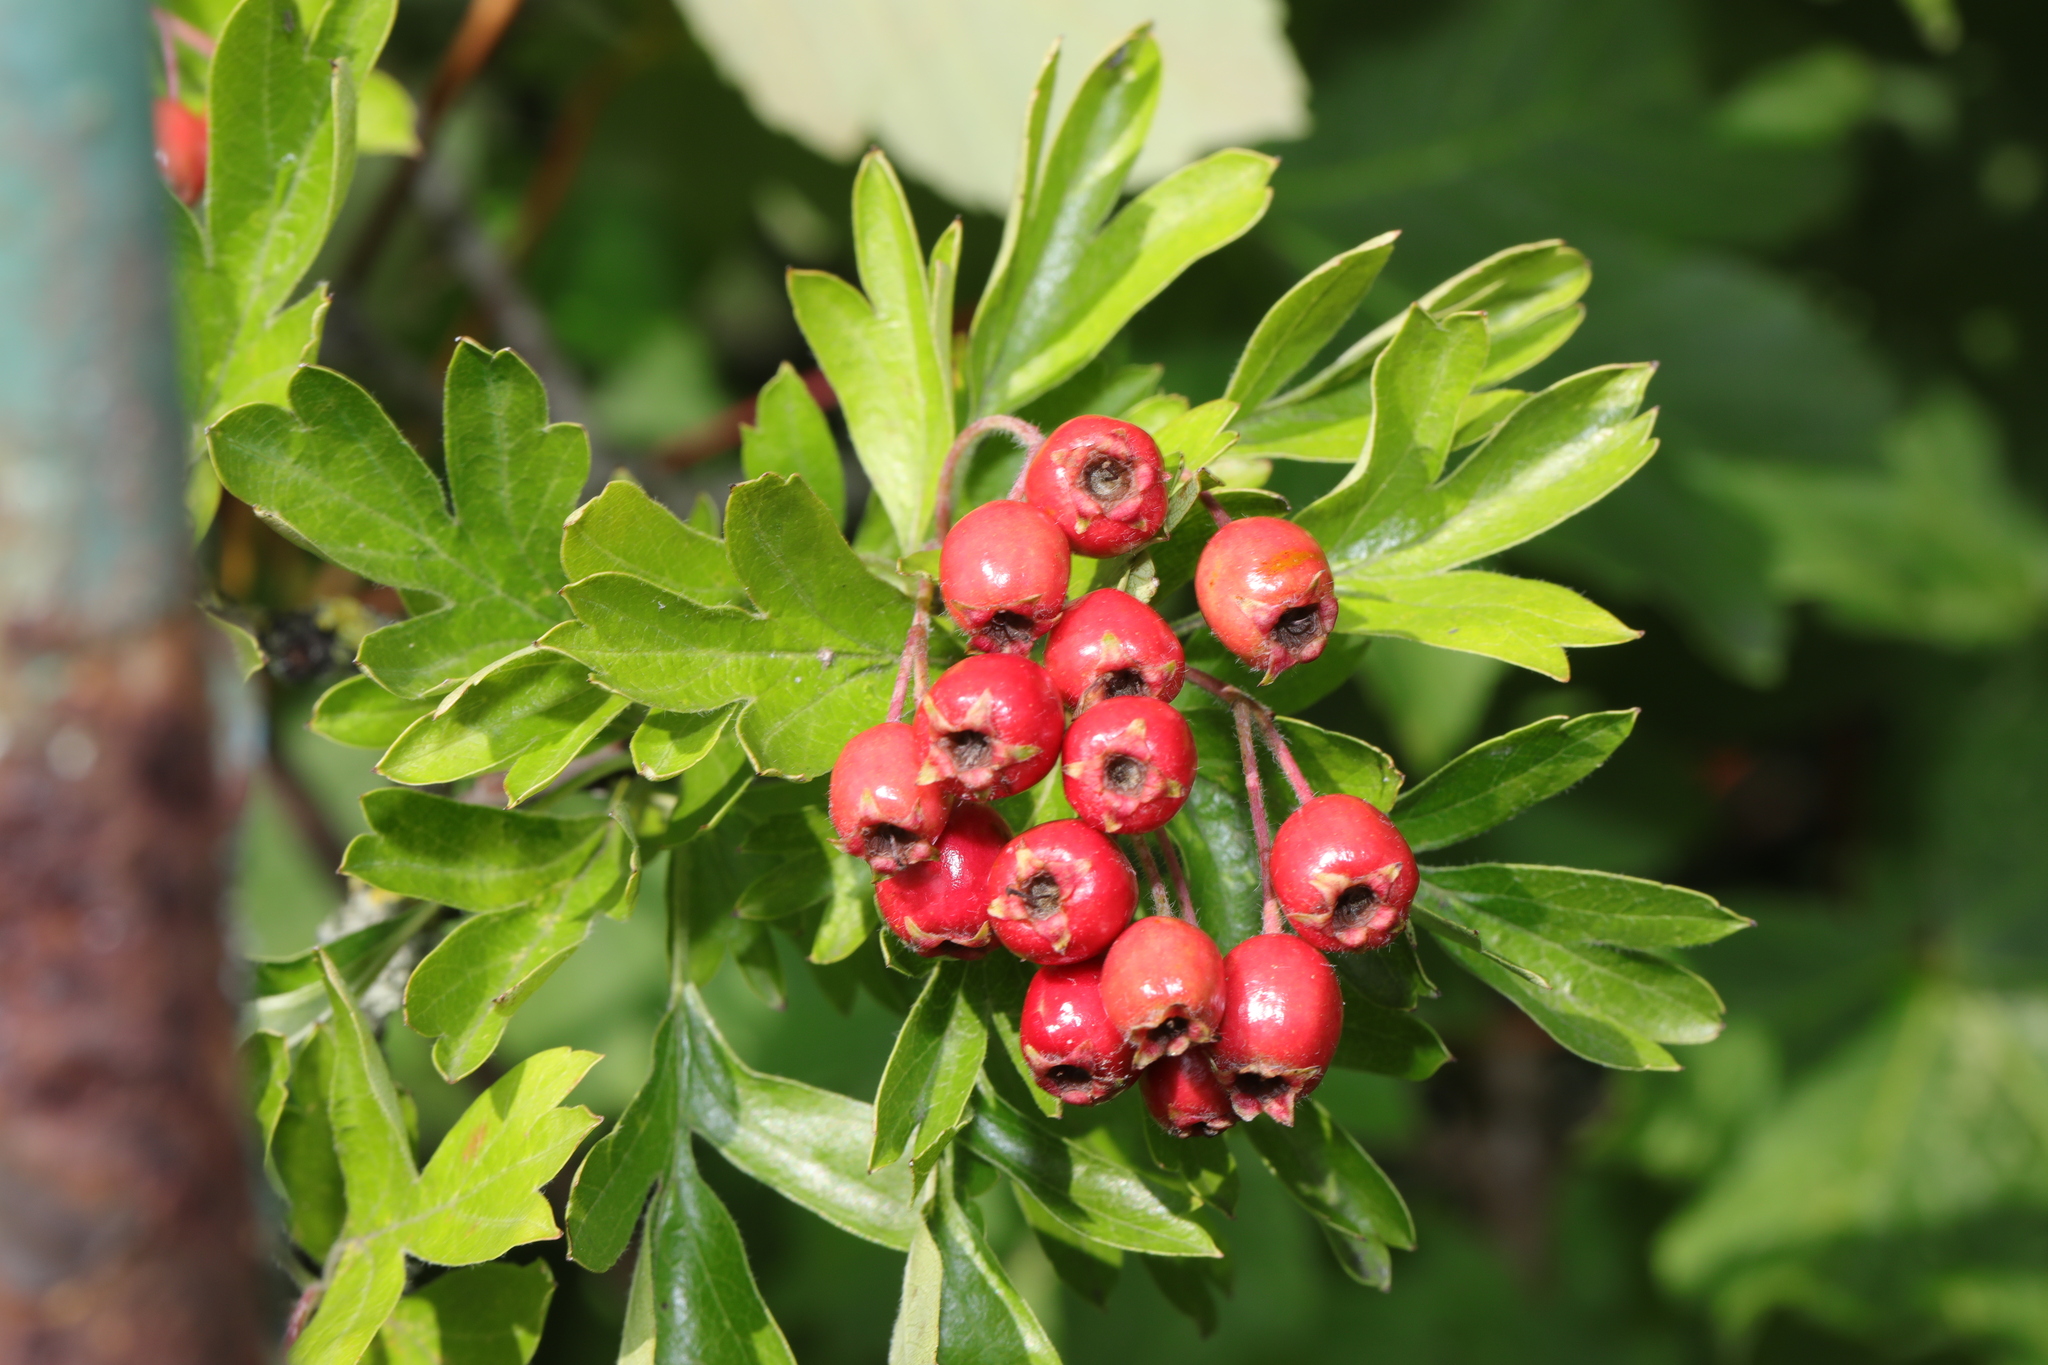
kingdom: Plantae
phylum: Tracheophyta
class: Magnoliopsida
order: Rosales
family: Rosaceae
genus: Crataegus
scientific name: Crataegus monogyna
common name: Hawthorn
